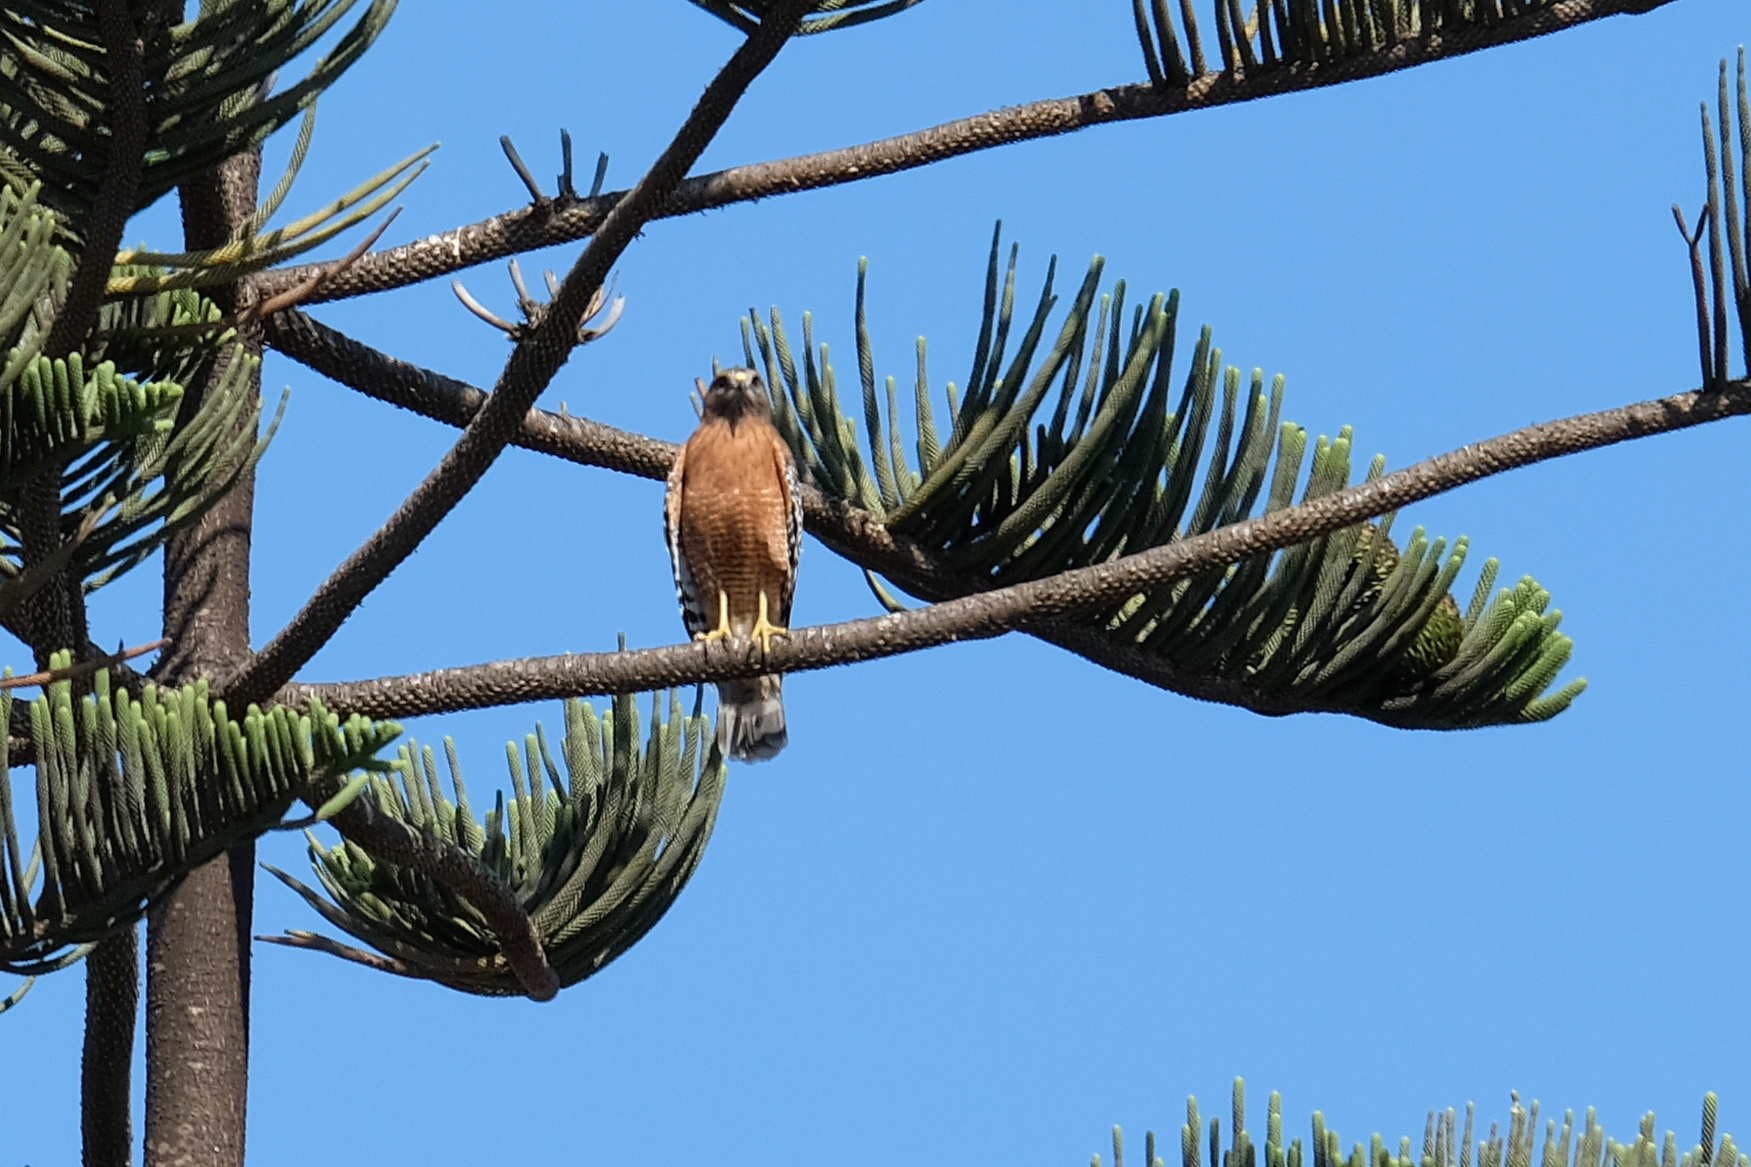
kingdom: Animalia
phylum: Chordata
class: Aves
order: Accipitriformes
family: Accipitridae
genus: Buteo
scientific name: Buteo lineatus
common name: Red-shouldered hawk
